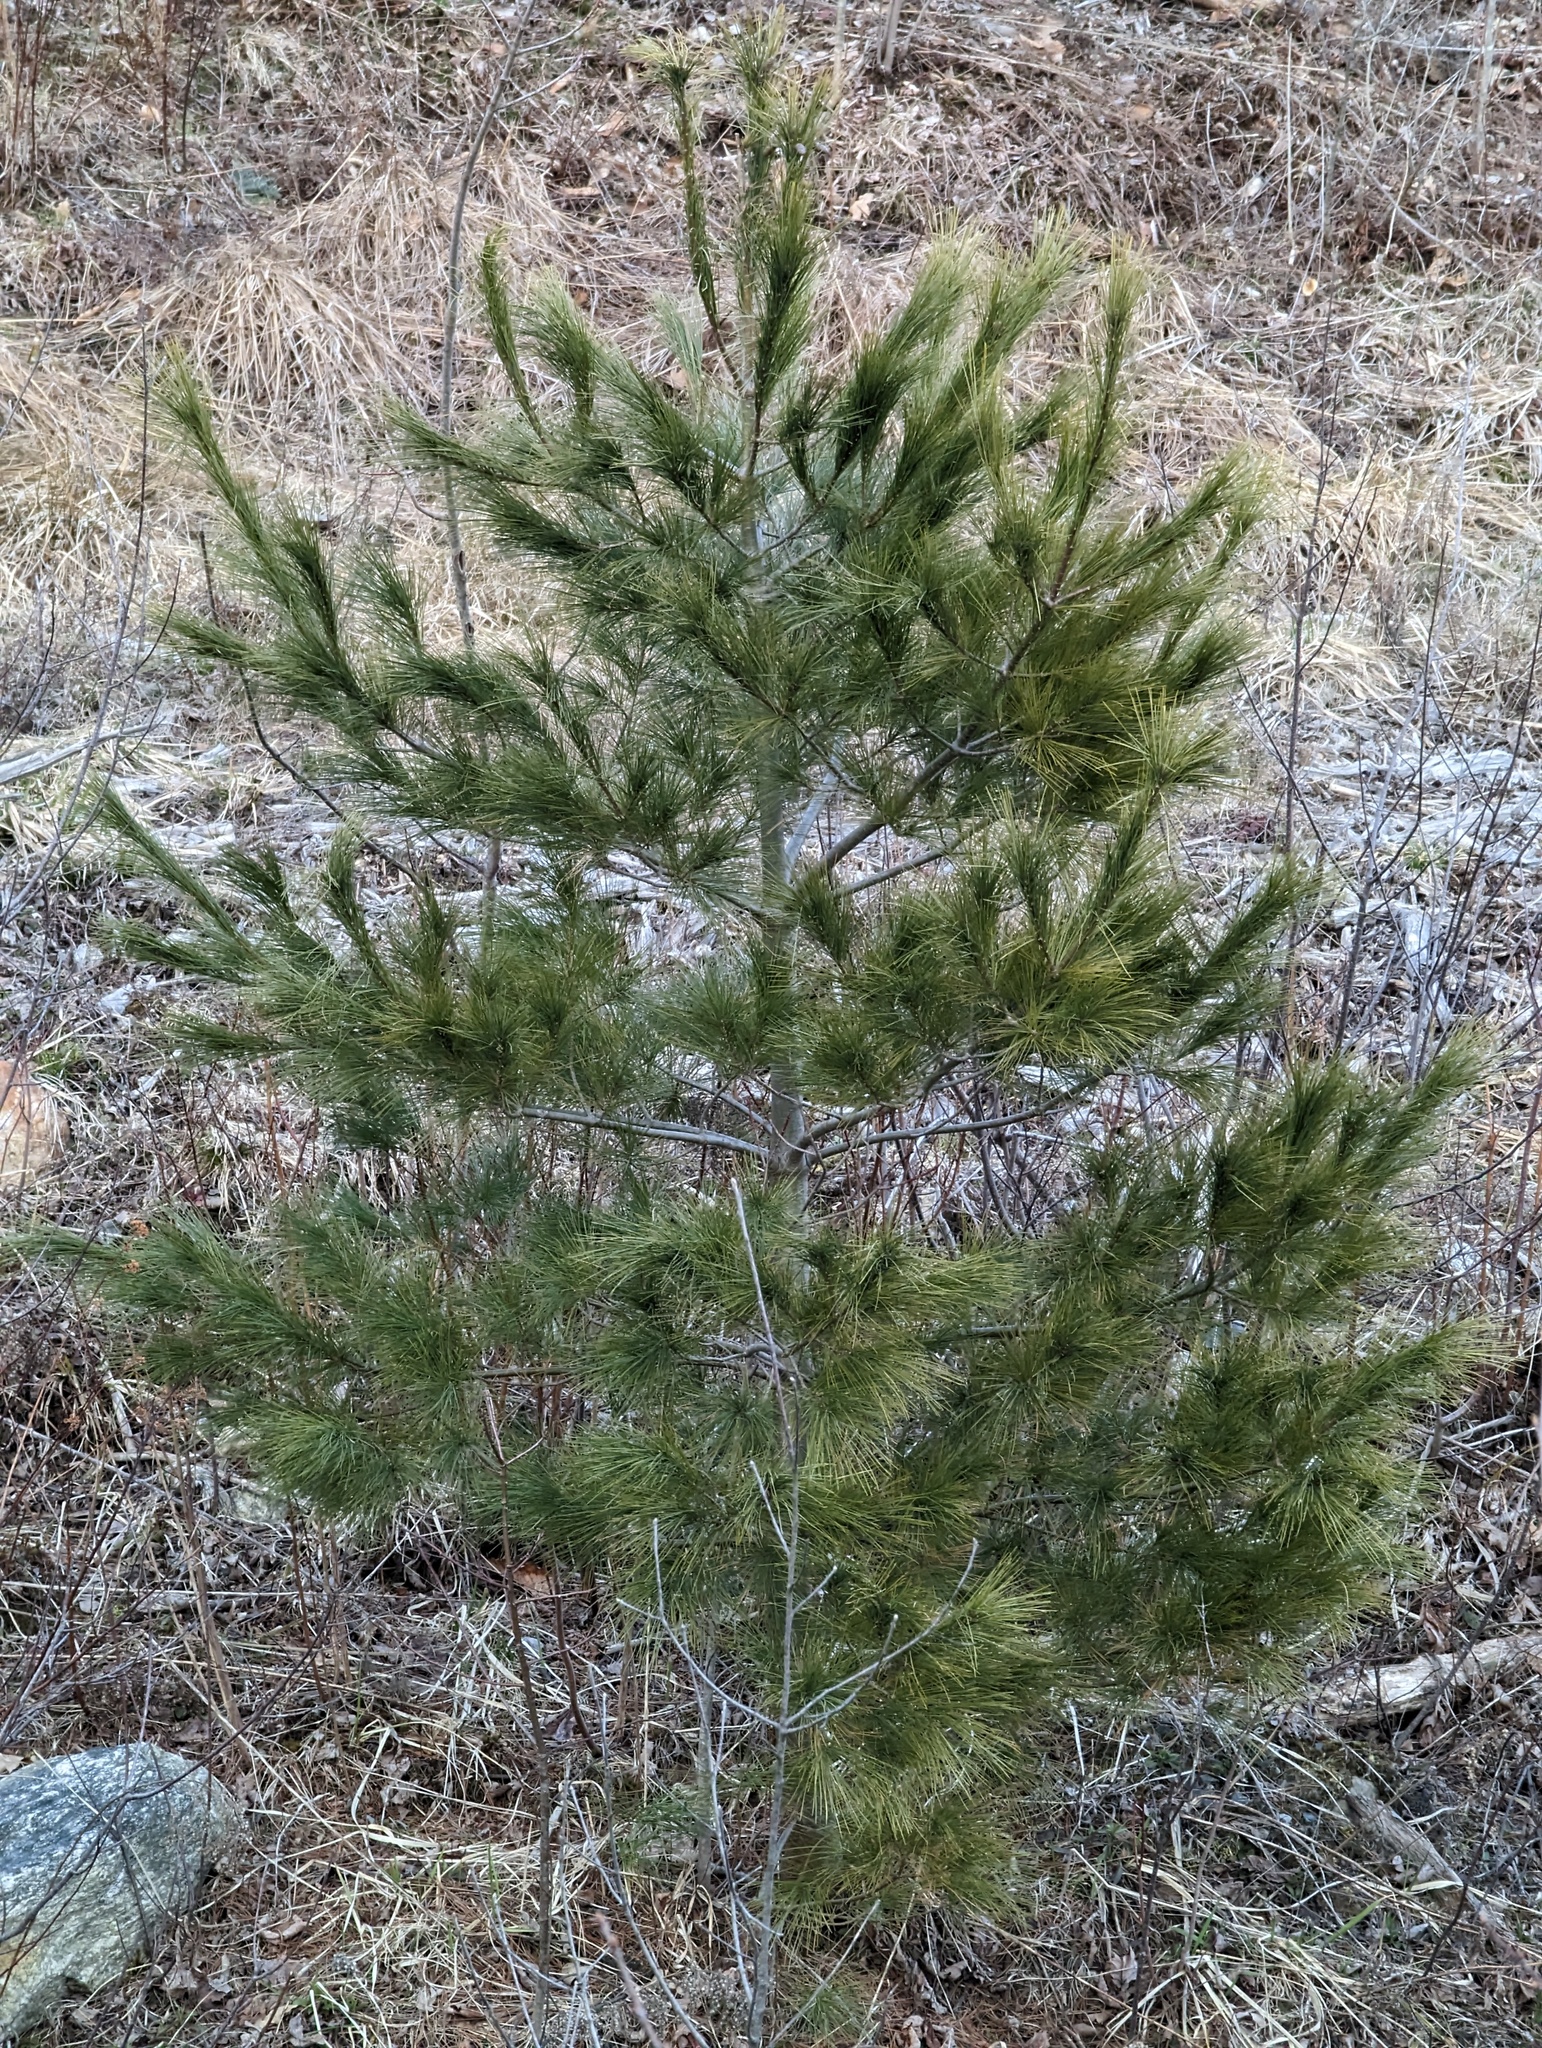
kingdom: Plantae
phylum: Tracheophyta
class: Pinopsida
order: Pinales
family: Pinaceae
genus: Pinus
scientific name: Pinus strobus
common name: Weymouth pine
